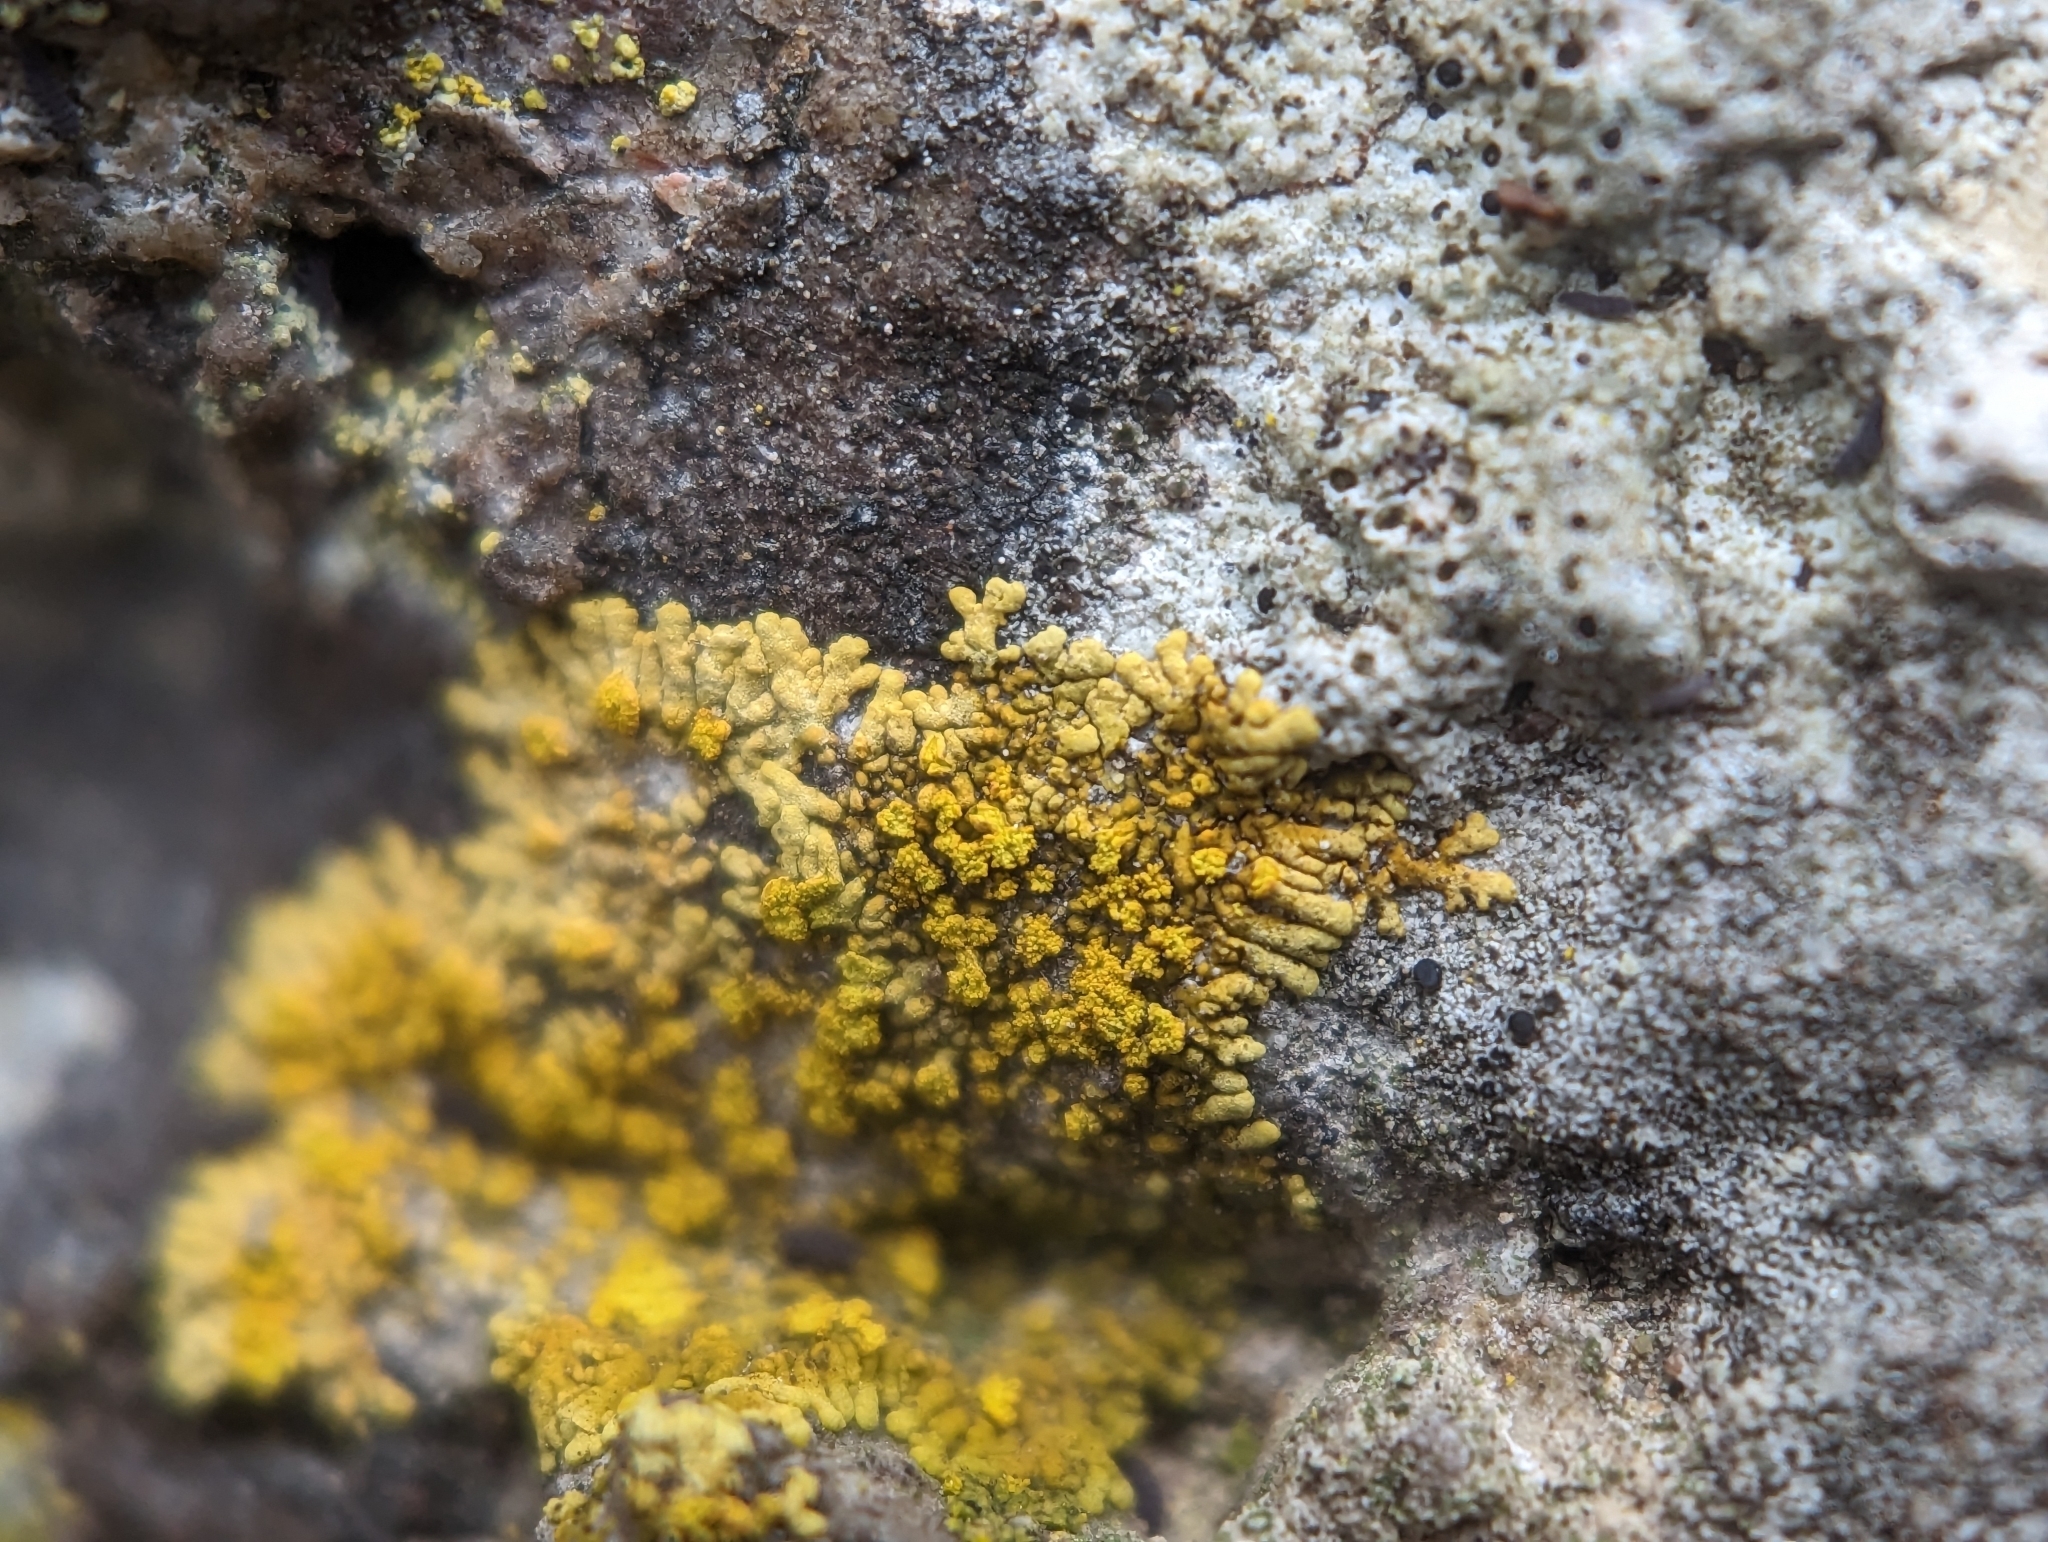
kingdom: Fungi
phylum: Ascomycota
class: Lecanoromycetes
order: Teloschistales
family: Teloschistaceae
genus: Leproplaca
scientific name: Leproplaca cirrochroa
